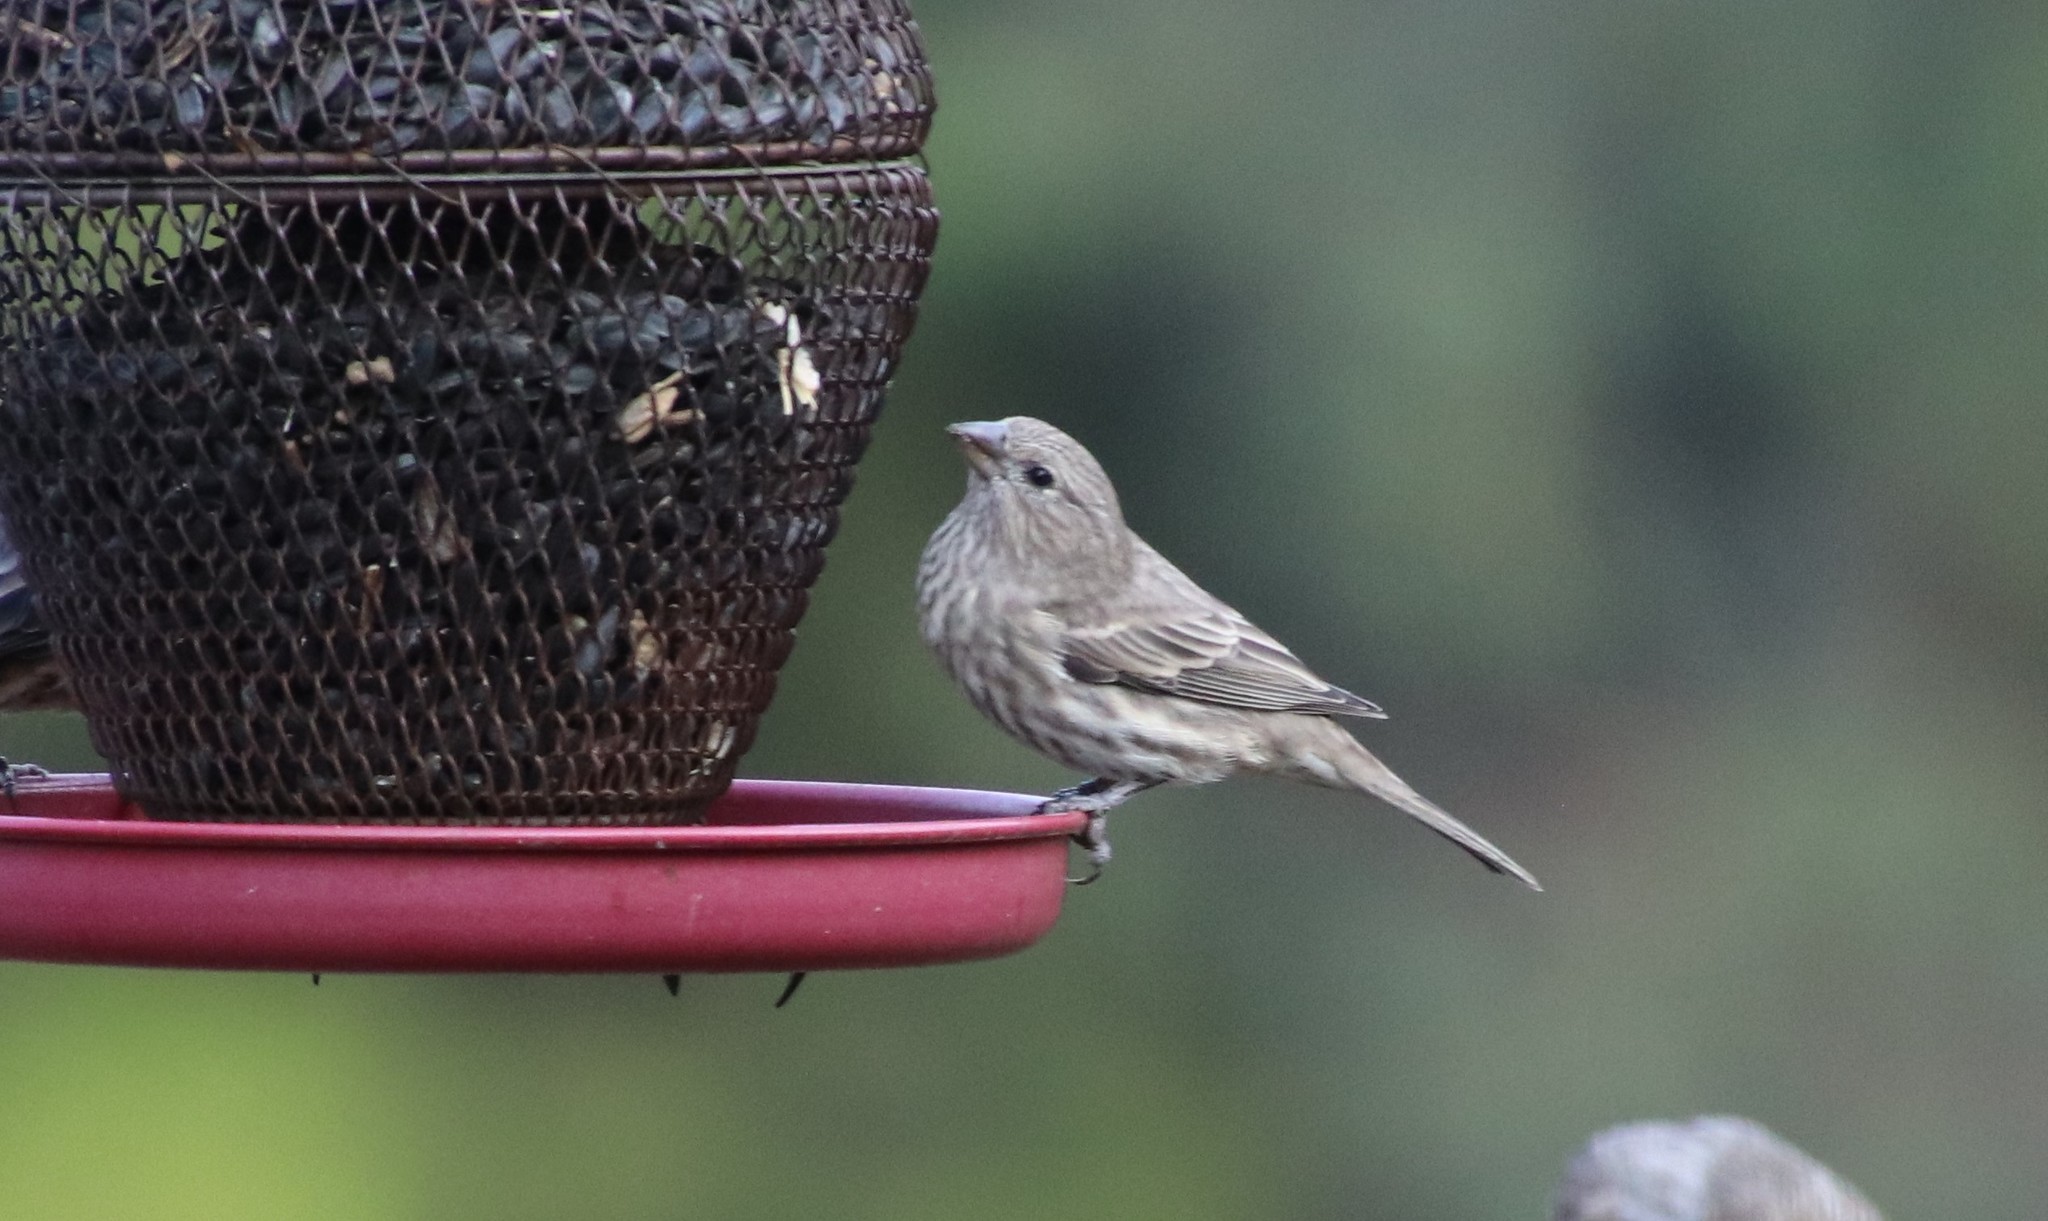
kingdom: Animalia
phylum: Chordata
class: Aves
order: Passeriformes
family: Fringillidae
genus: Haemorhous
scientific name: Haemorhous mexicanus
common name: House finch
